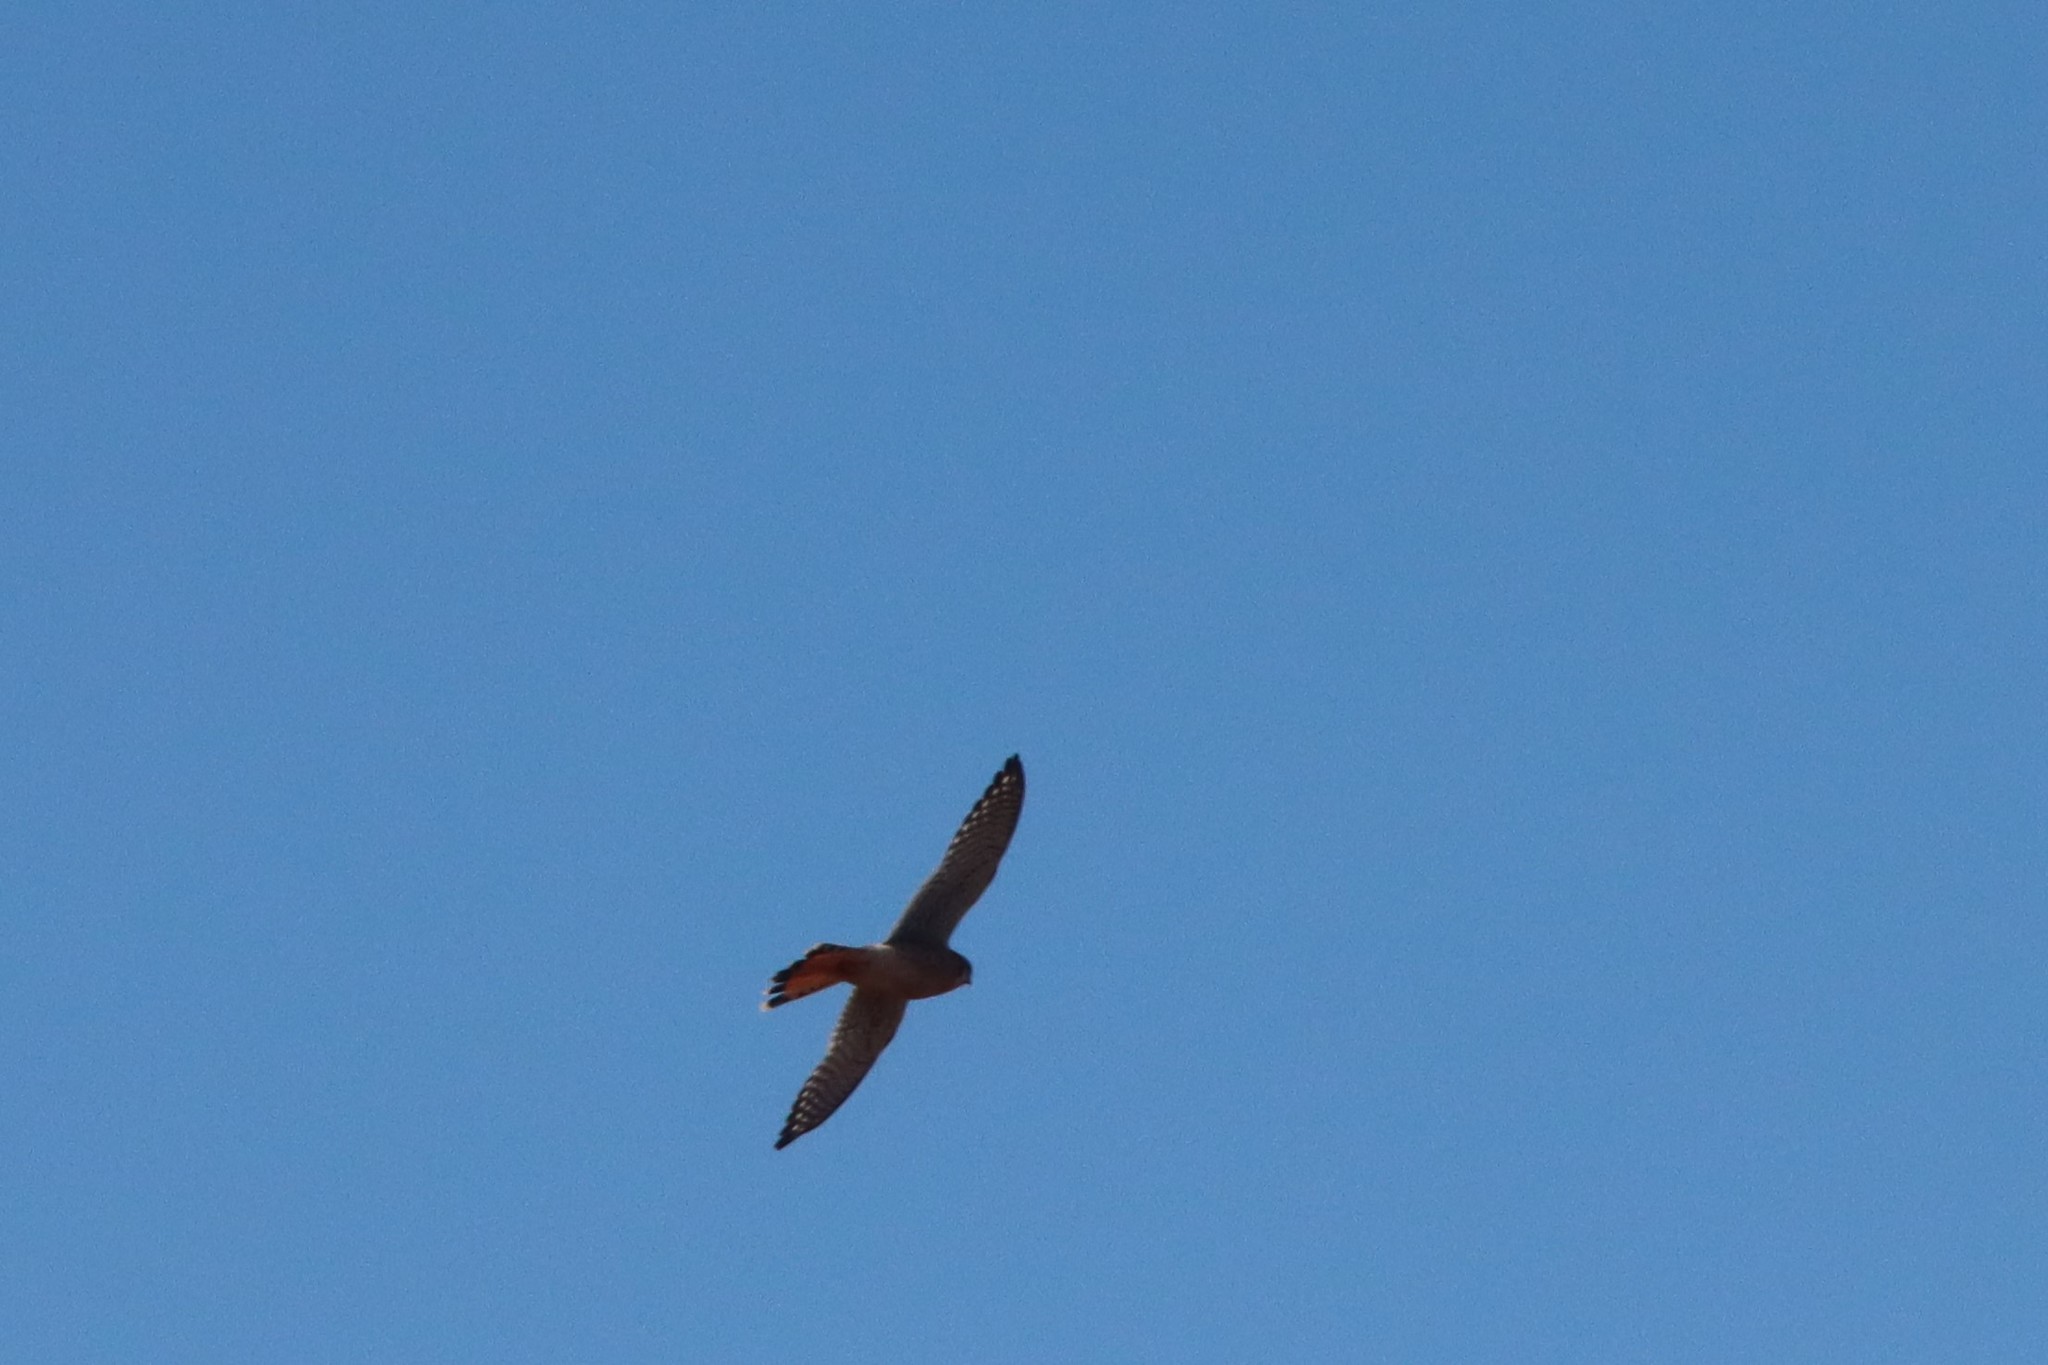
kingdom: Animalia
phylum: Chordata
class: Aves
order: Falconiformes
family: Falconidae
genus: Falco
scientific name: Falco sparverius
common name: American kestrel
